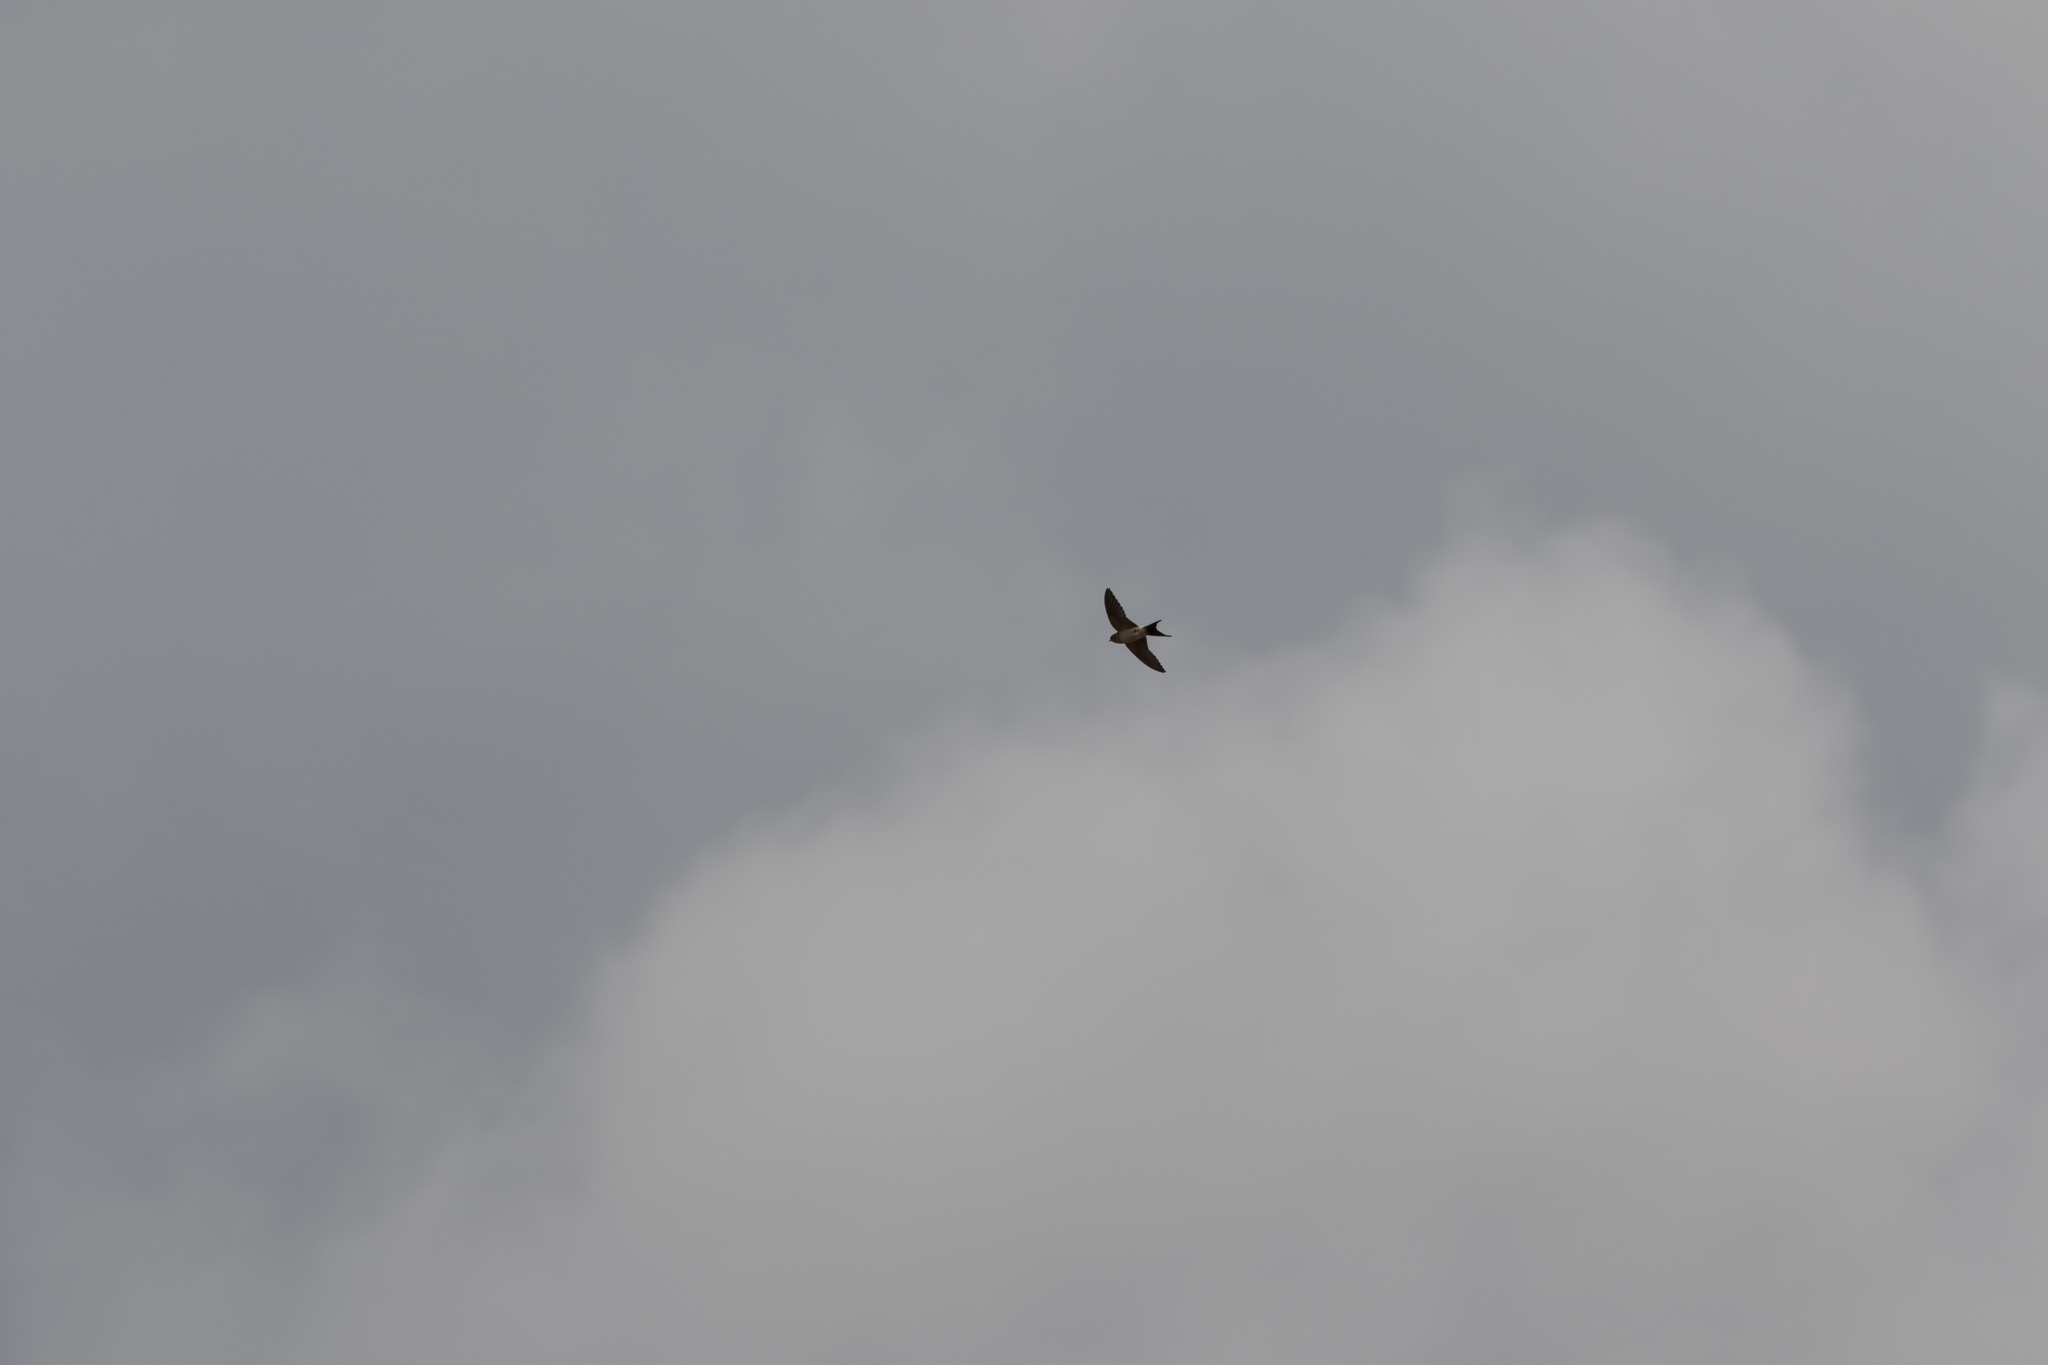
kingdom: Animalia
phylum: Chordata
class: Aves
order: Passeriformes
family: Hirundinidae
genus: Cecropis
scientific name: Cecropis daurica
